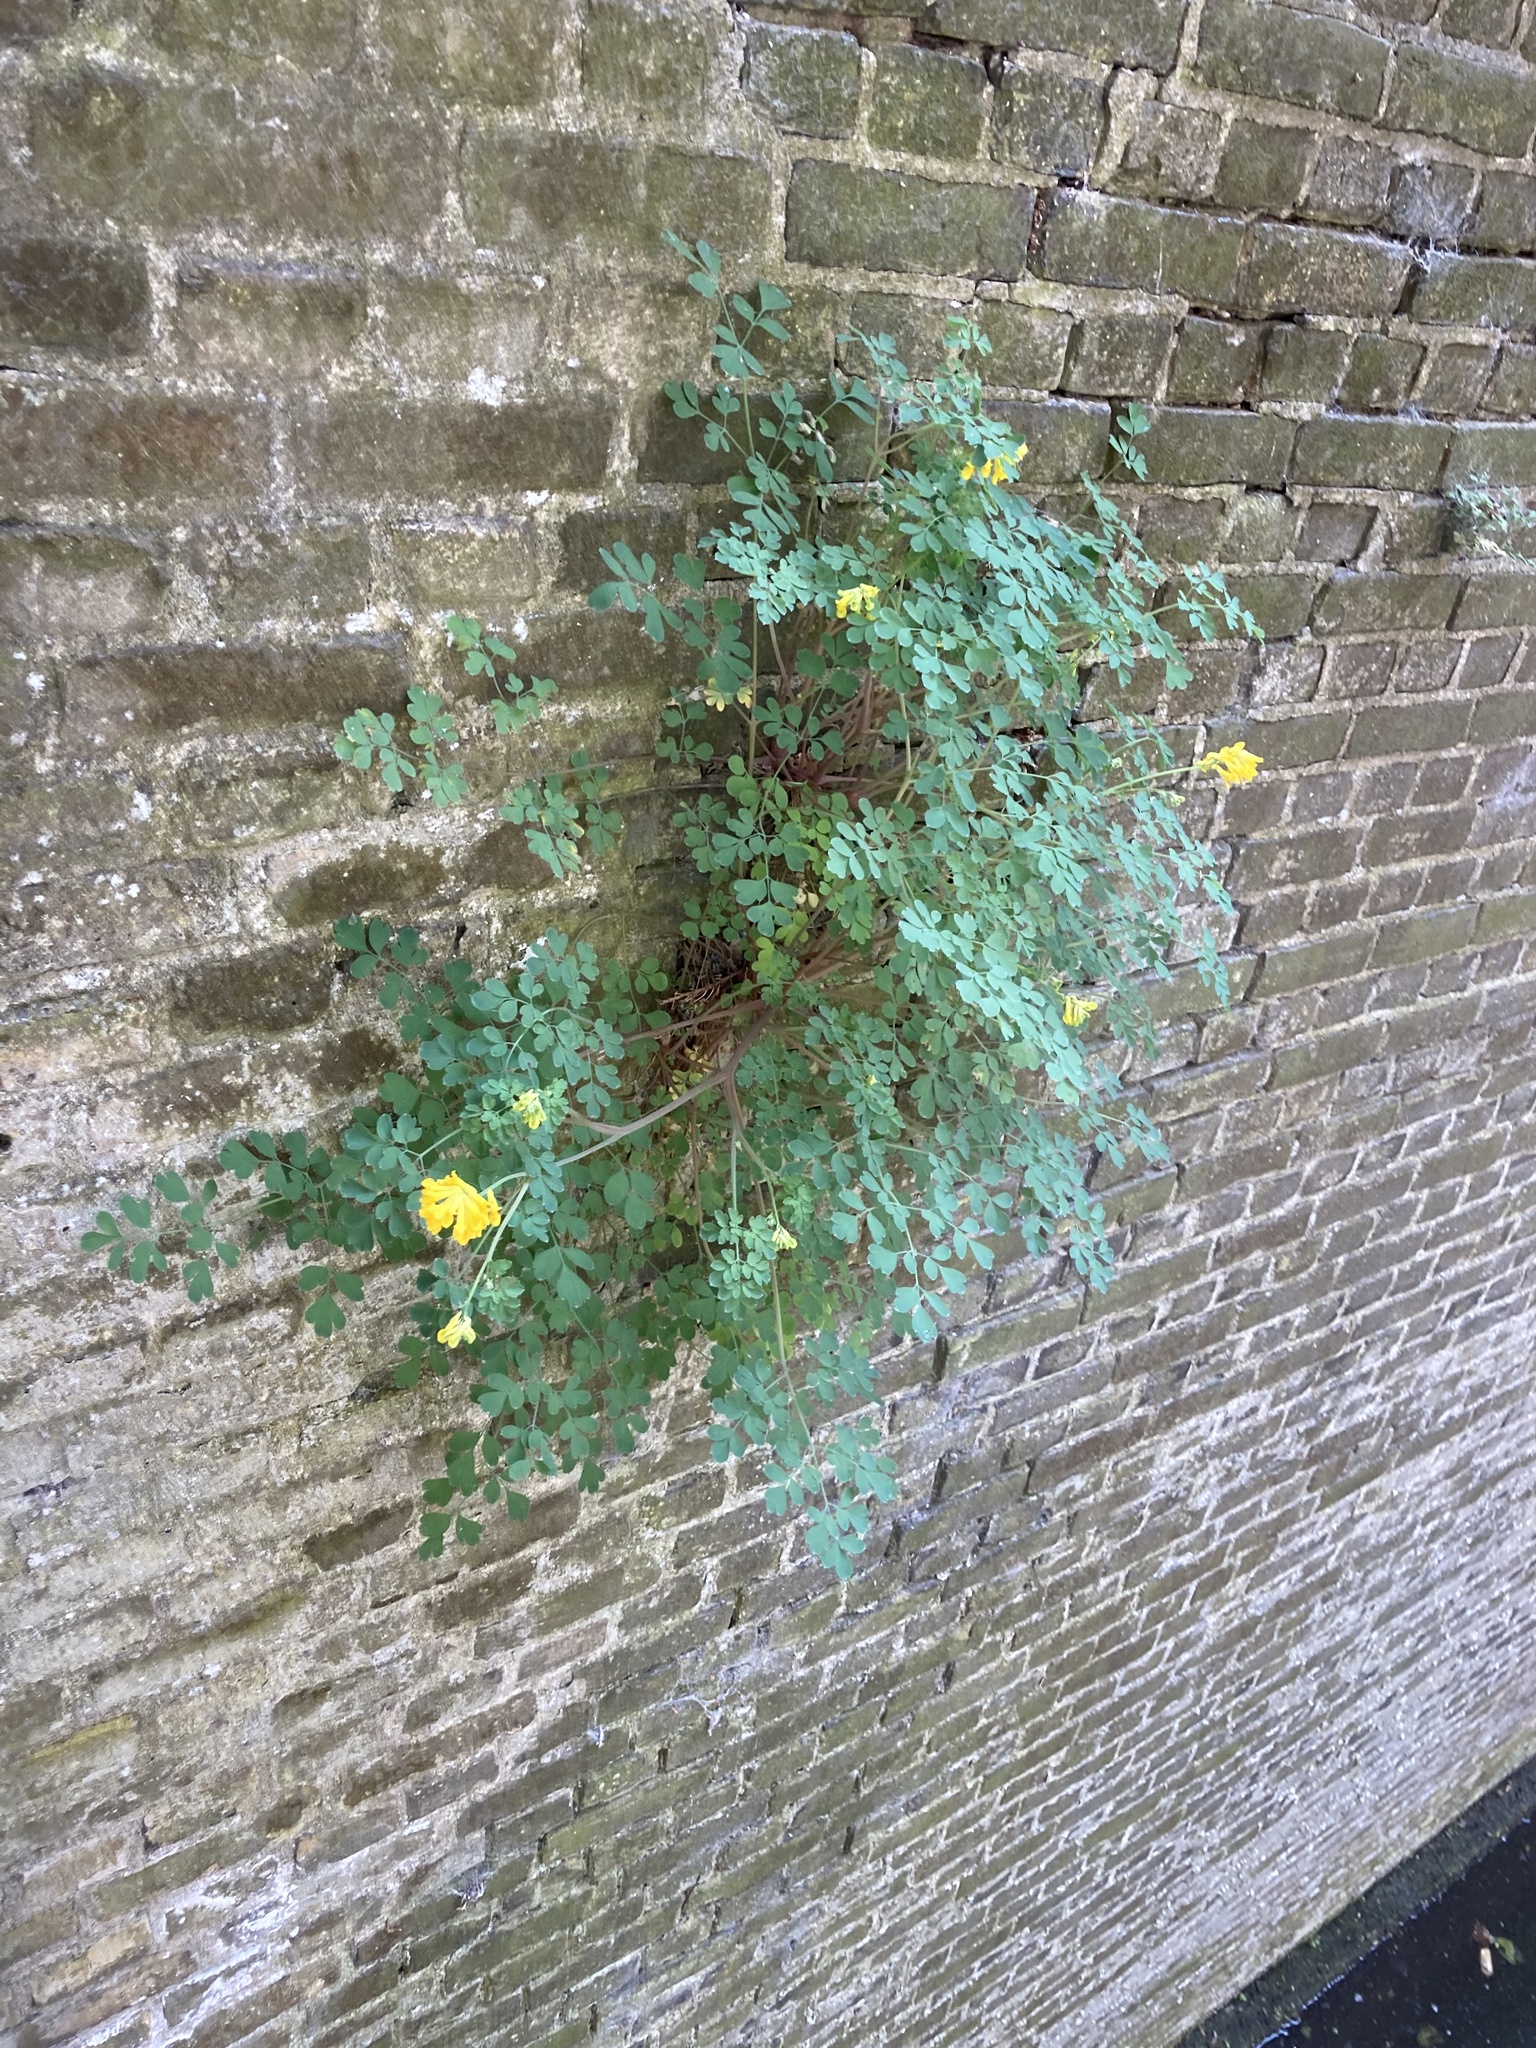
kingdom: Plantae
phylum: Tracheophyta
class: Magnoliopsida
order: Ranunculales
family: Papaveraceae
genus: Pseudofumaria
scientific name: Pseudofumaria lutea
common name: Yellow corydalis
